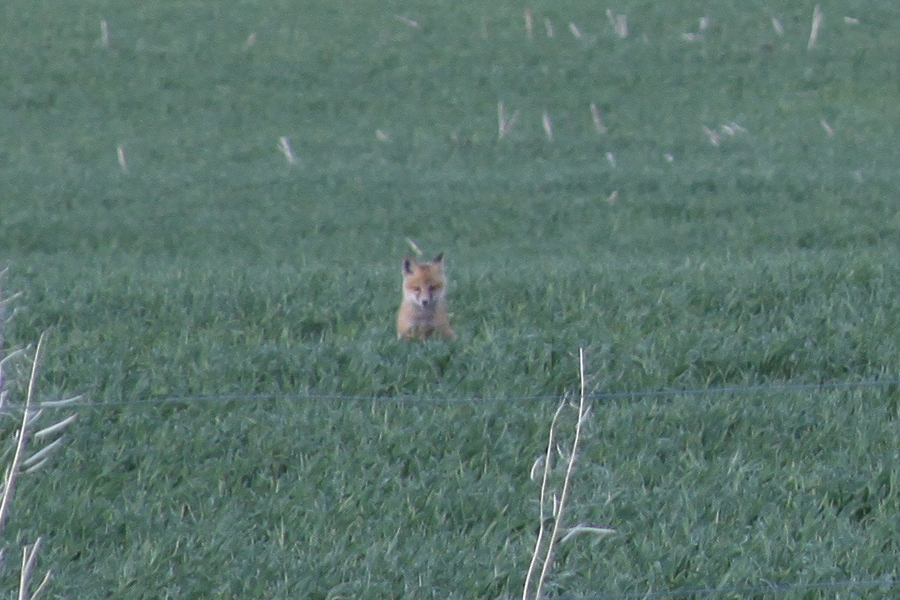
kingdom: Animalia
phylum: Chordata
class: Mammalia
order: Carnivora
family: Canidae
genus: Vulpes
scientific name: Vulpes vulpes
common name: Red fox
